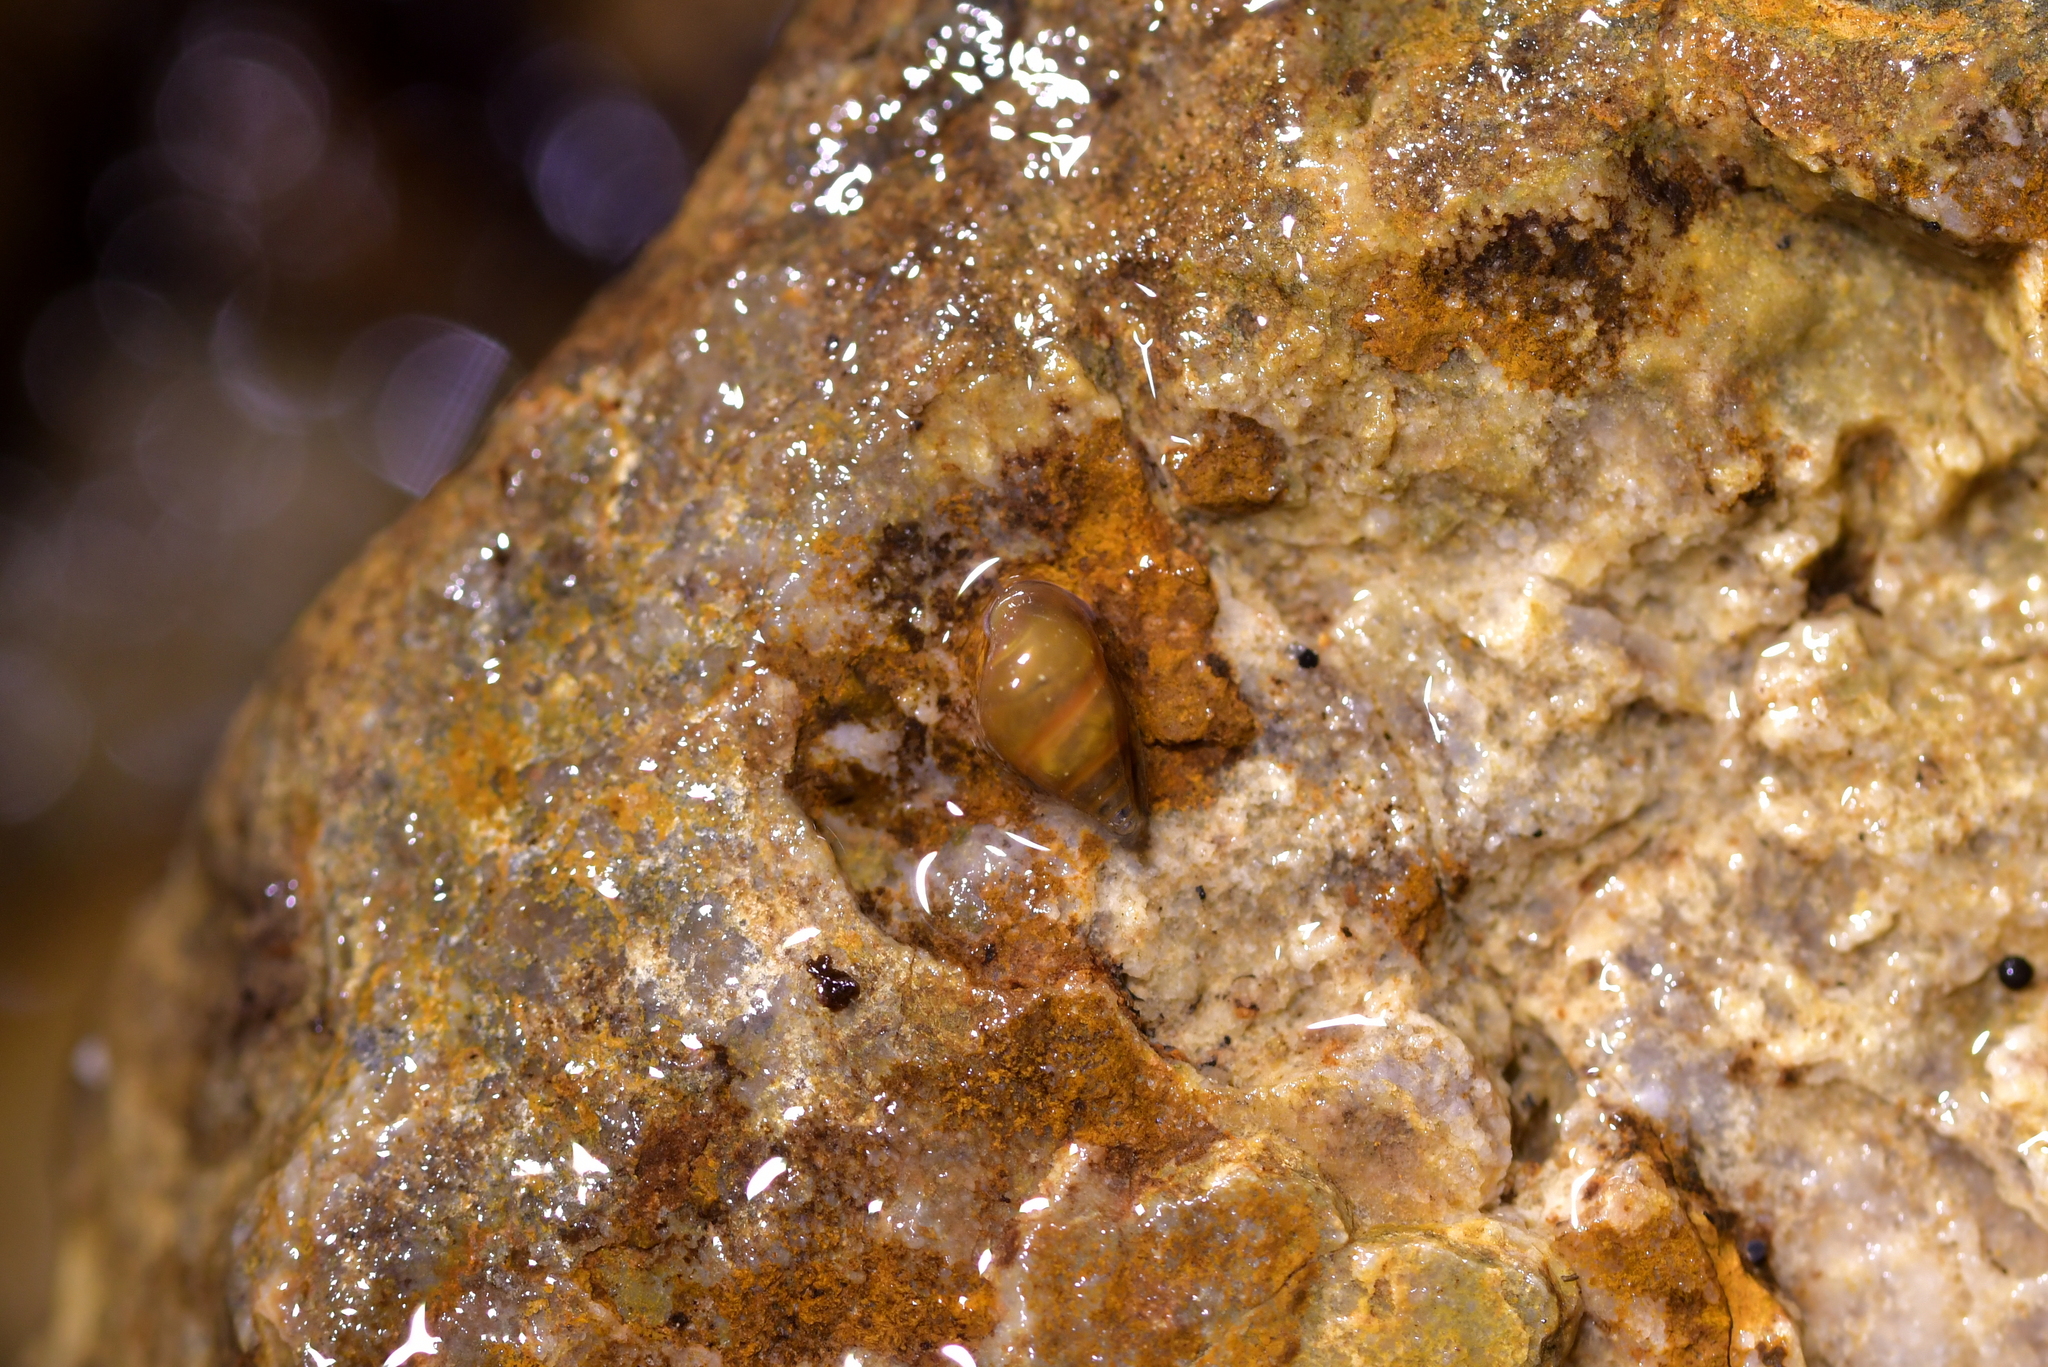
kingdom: Animalia
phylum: Mollusca
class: Gastropoda
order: Littorinimorpha
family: Tateidae
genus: Potamopyrgus
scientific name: Potamopyrgus antipodarum
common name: Jenkins' spire snail
